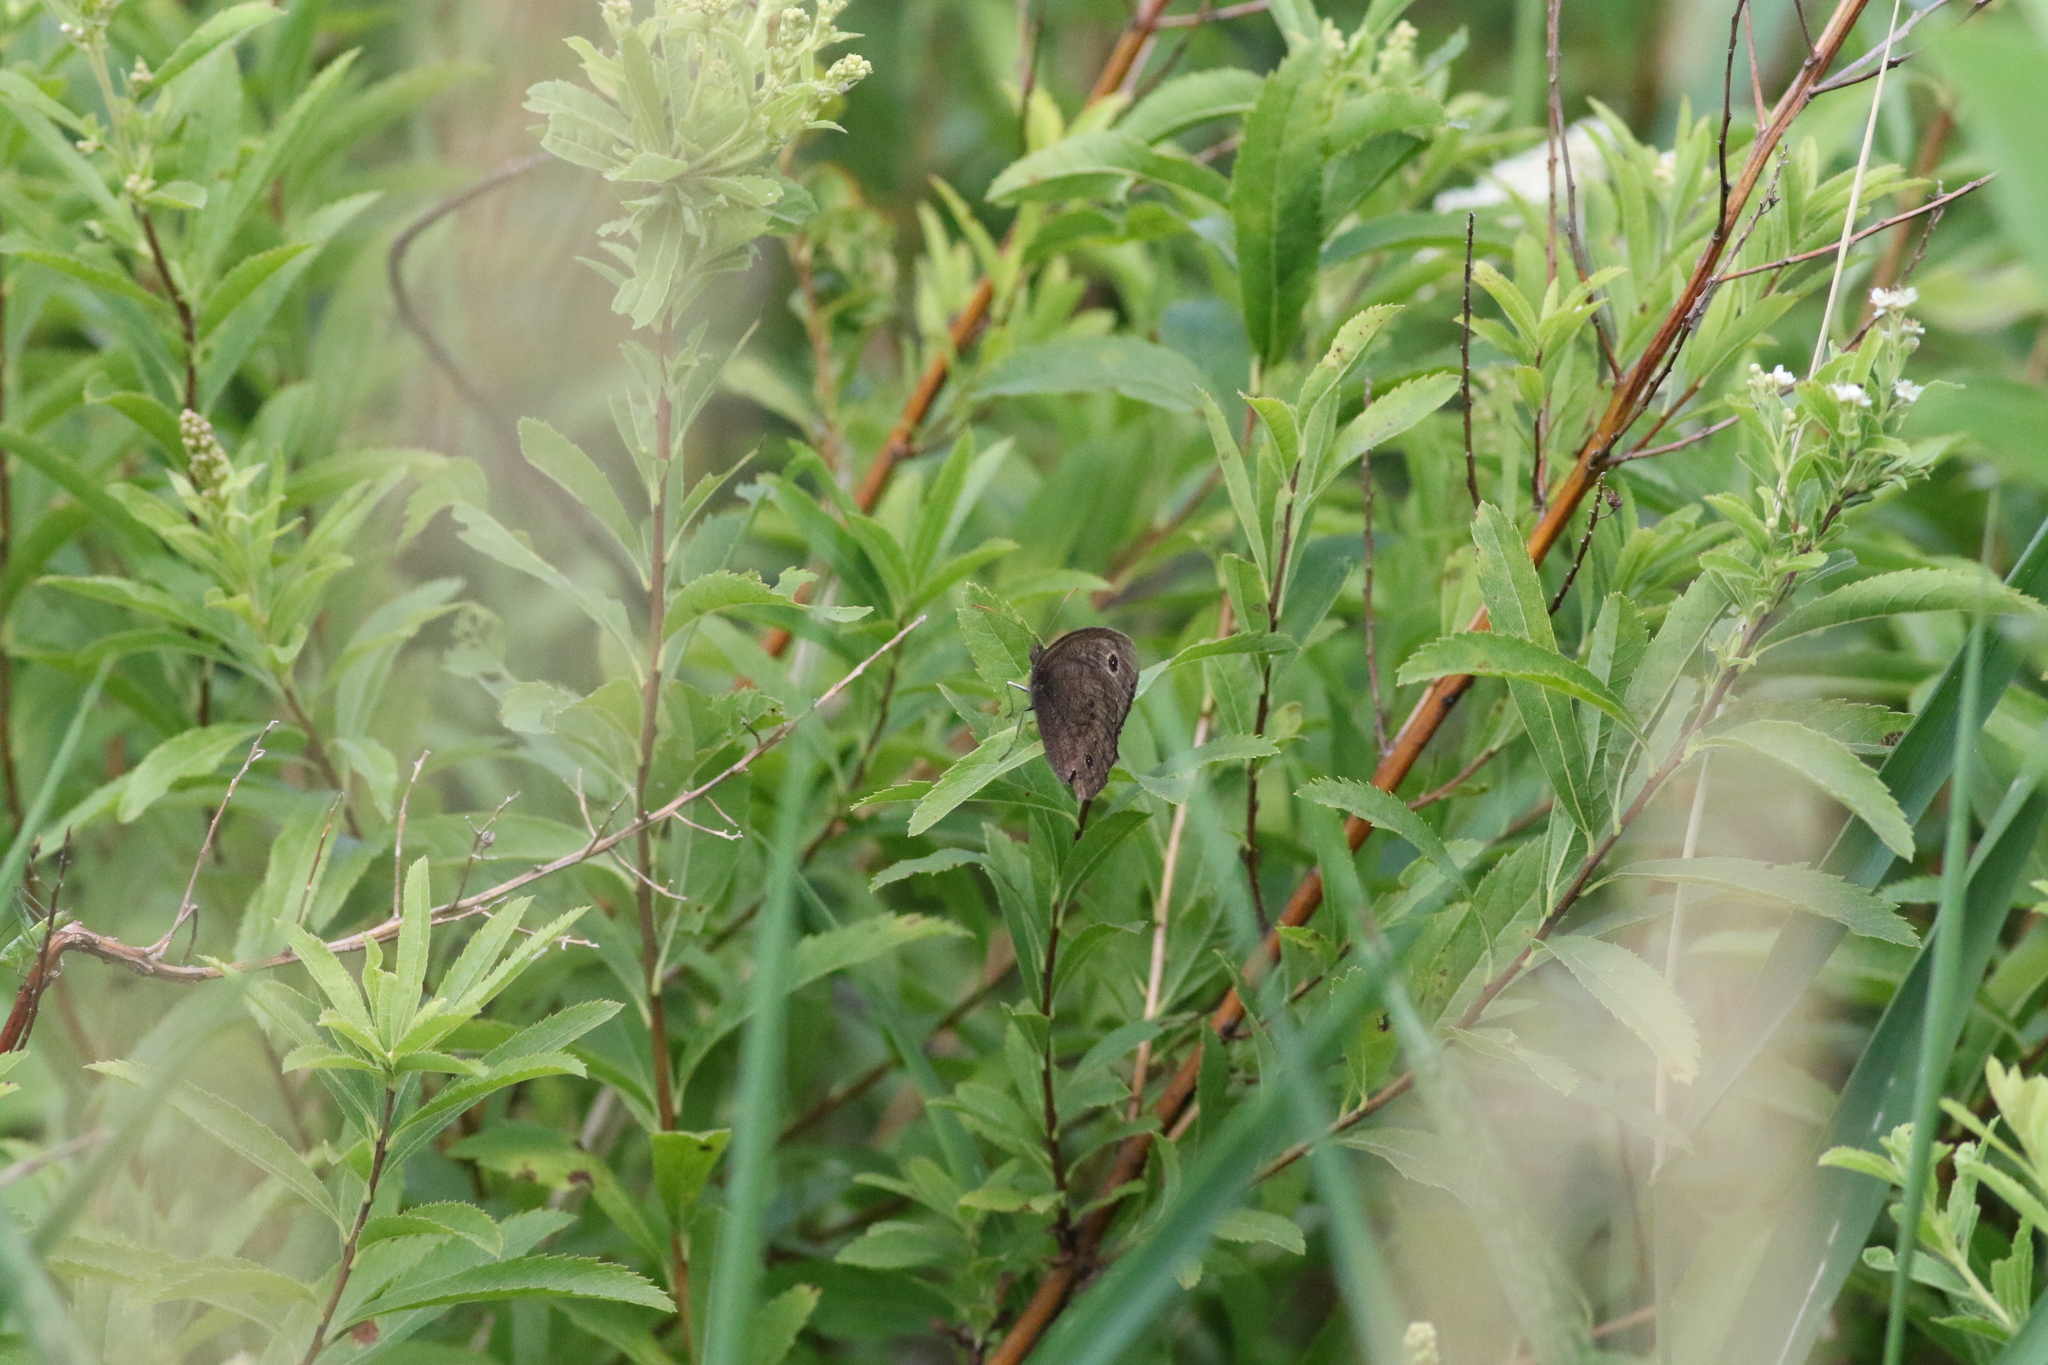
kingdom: Animalia
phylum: Arthropoda
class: Insecta
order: Lepidoptera
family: Nymphalidae
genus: Cercyonis
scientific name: Cercyonis pegala
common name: Common wood-nymph
